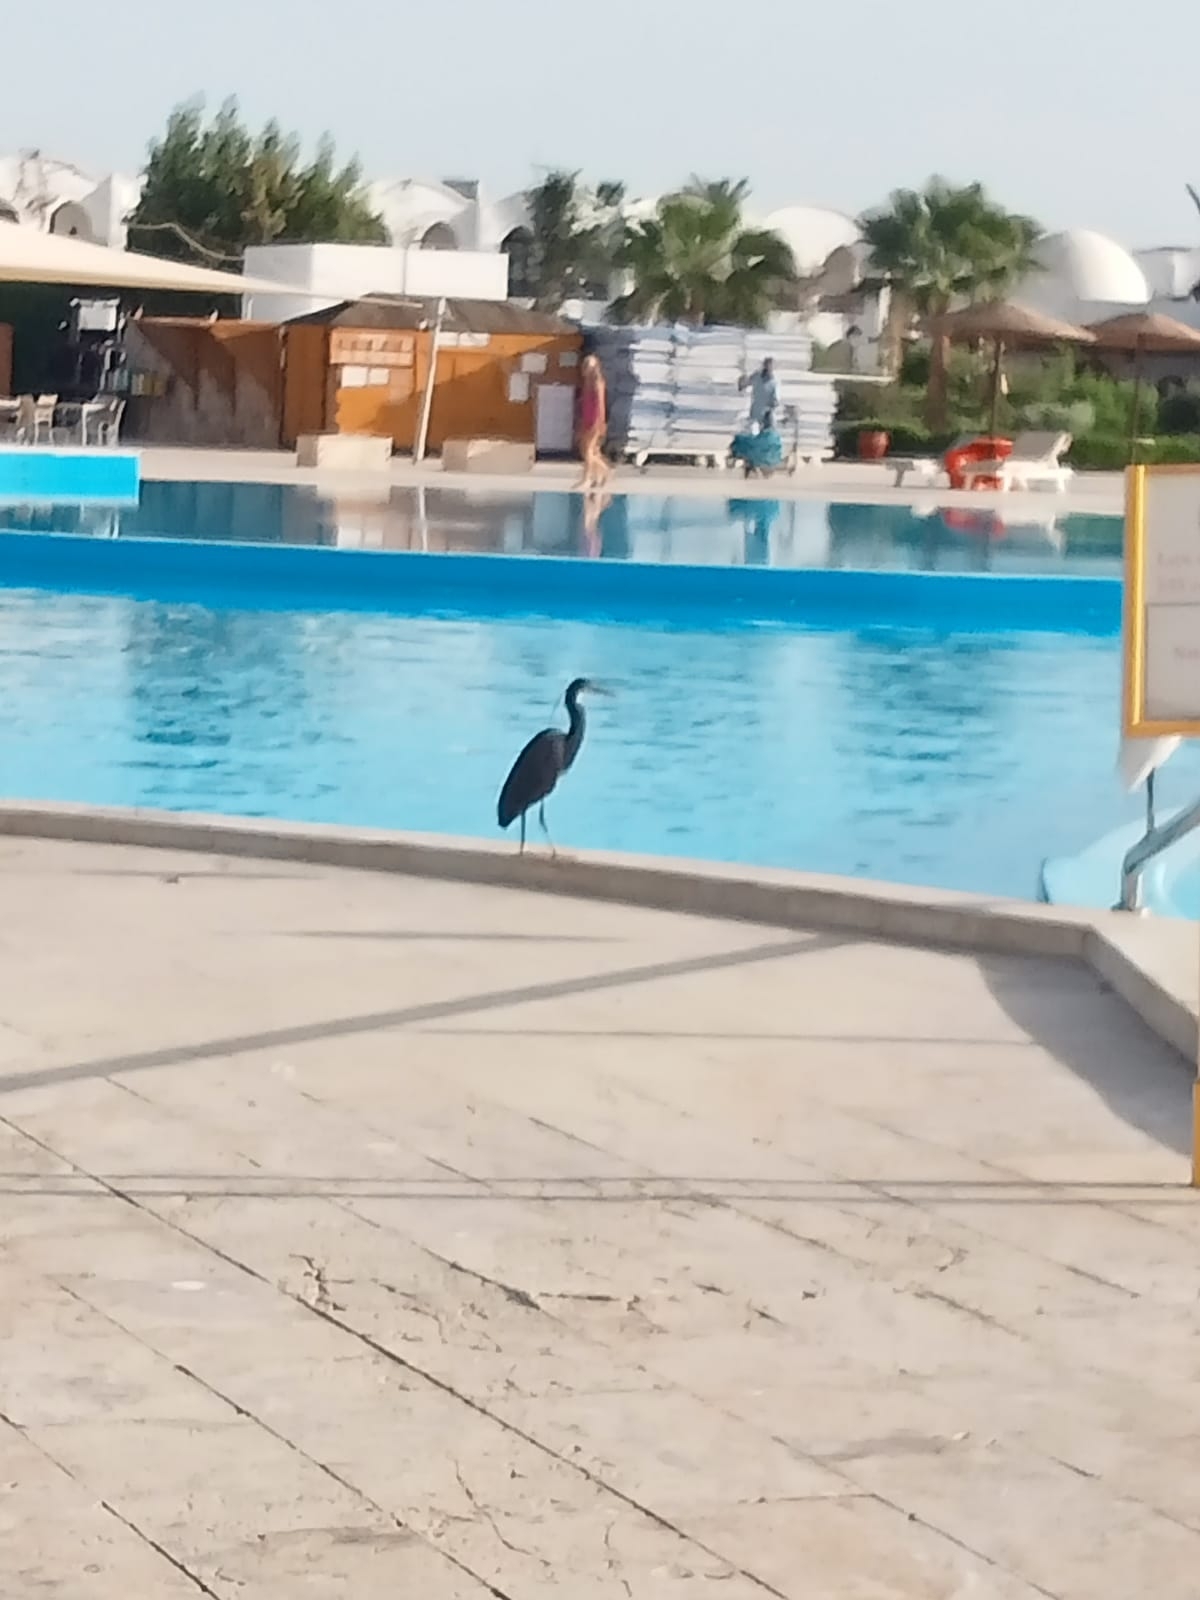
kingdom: Animalia
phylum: Chordata
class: Aves
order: Pelecaniformes
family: Ardeidae
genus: Egretta
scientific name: Egretta gularis
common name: Western reef-heron
